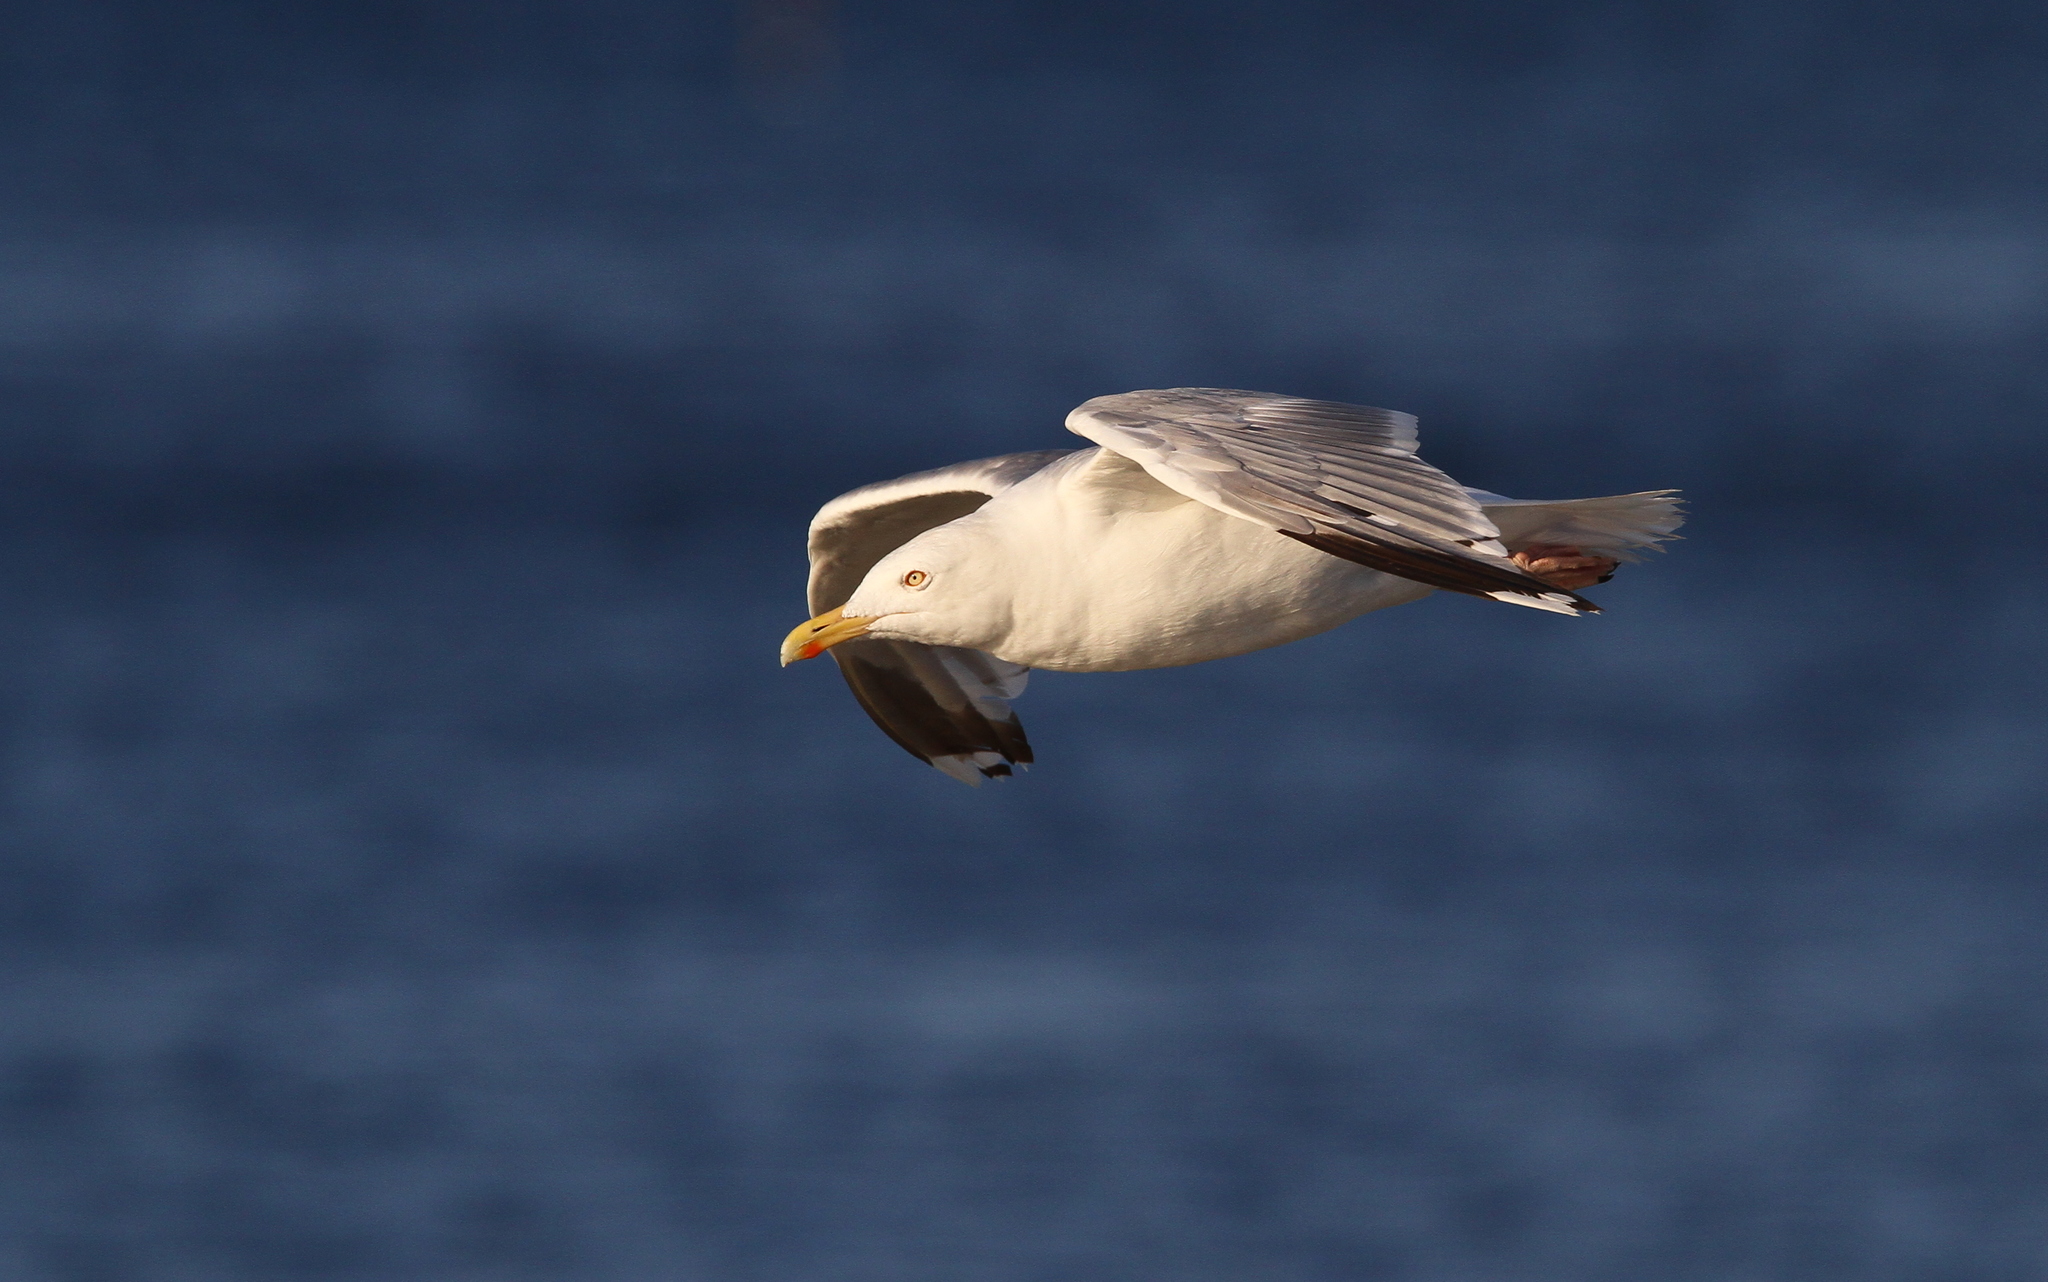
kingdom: Animalia
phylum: Chordata
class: Aves
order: Charadriiformes
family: Laridae
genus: Larus
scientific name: Larus argentatus
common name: Herring gull
